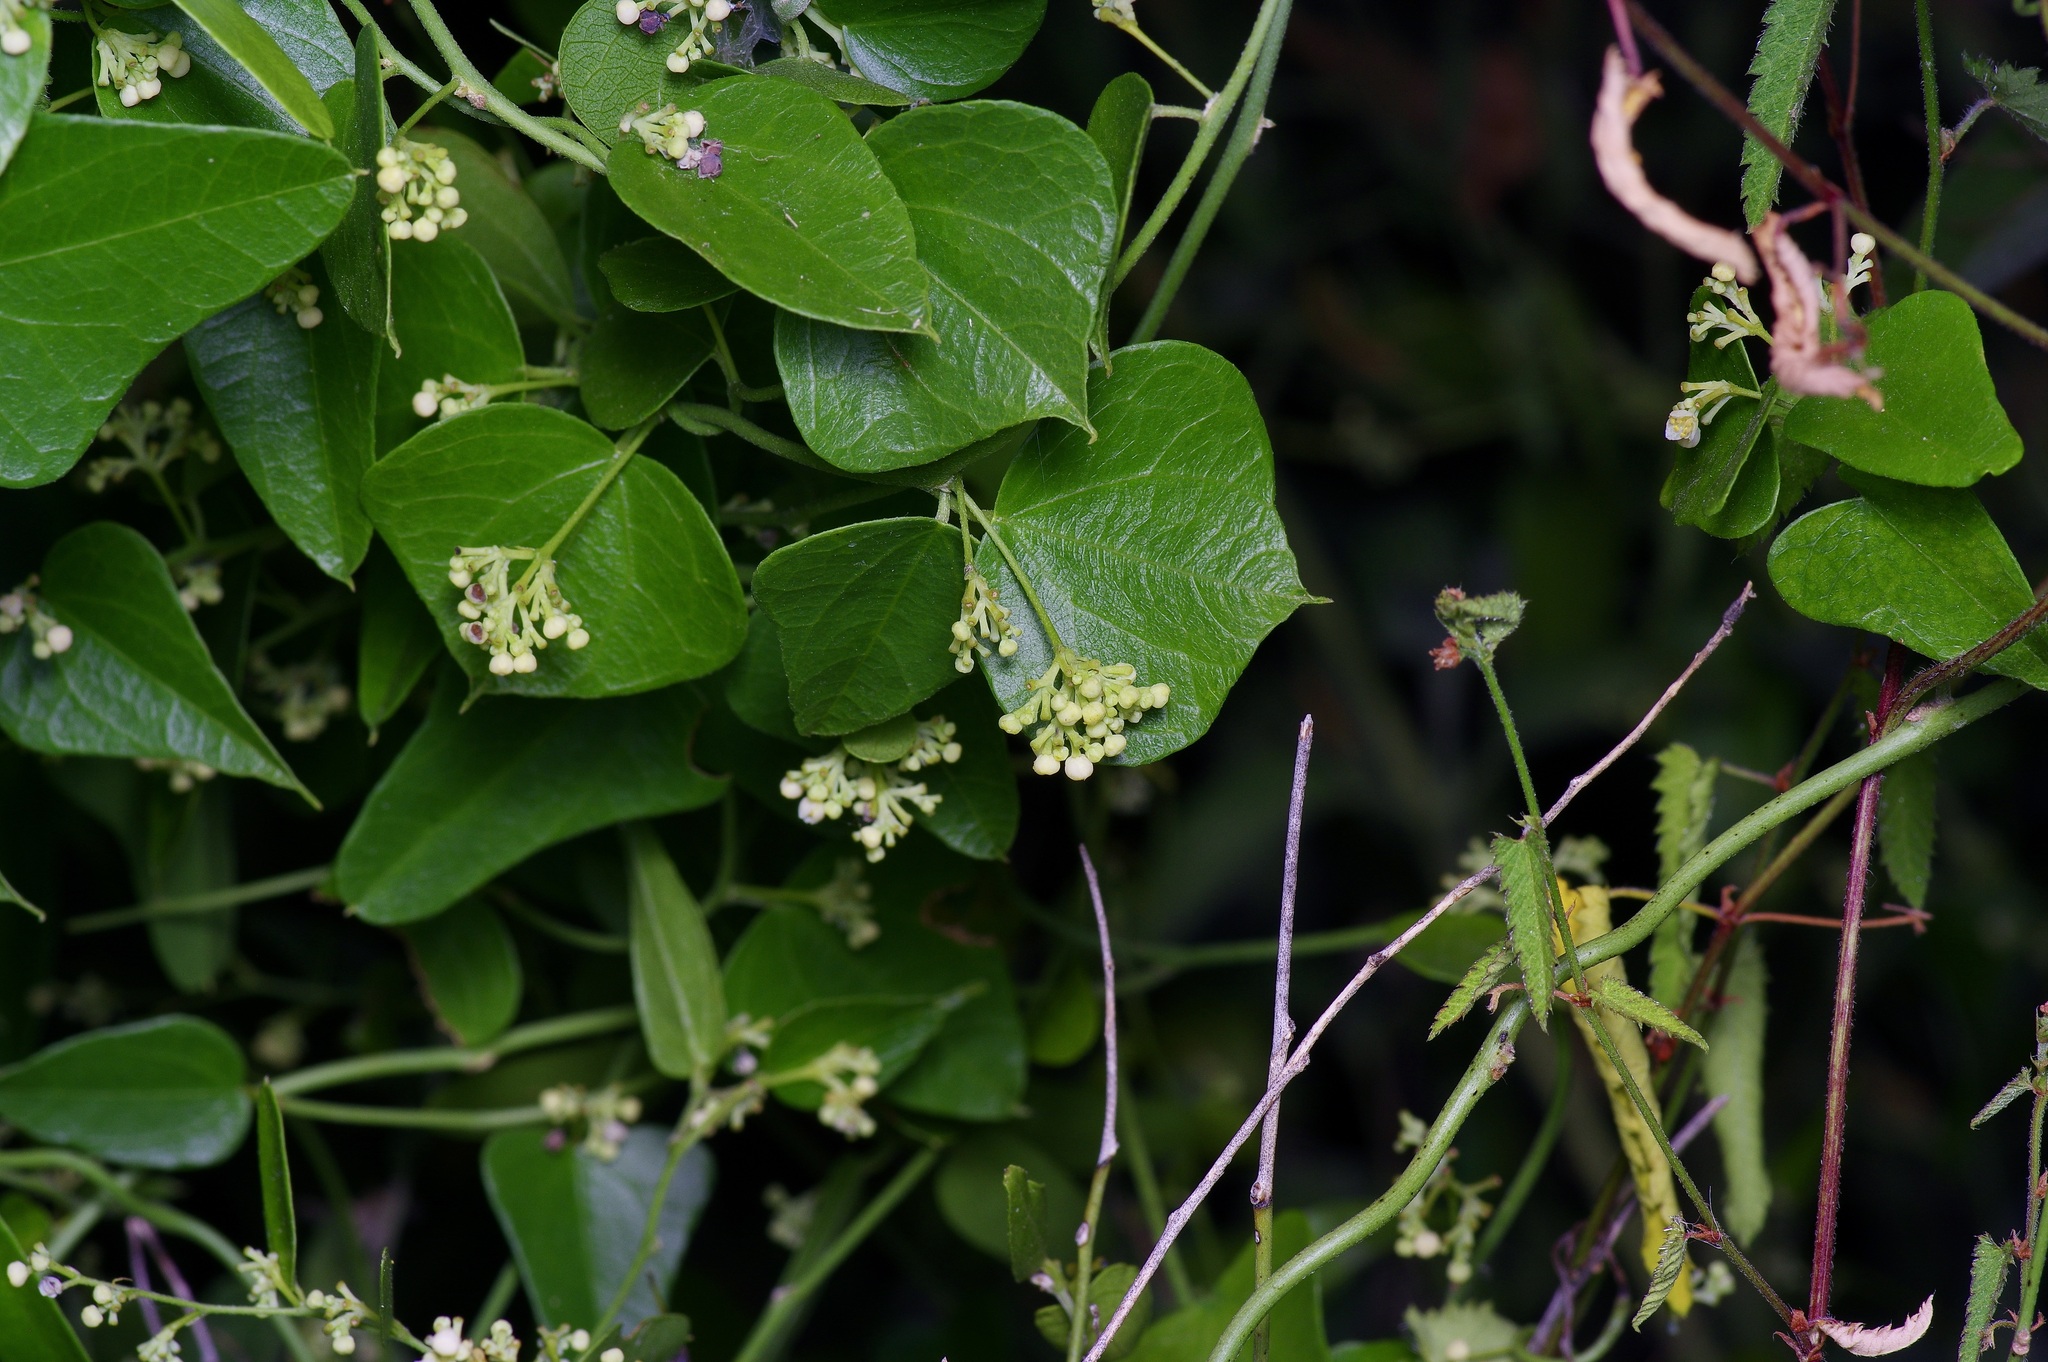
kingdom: Plantae
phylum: Tracheophyta
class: Magnoliopsida
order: Ranunculales
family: Menispermaceae
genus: Cocculus
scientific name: Cocculus carolinus
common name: Carolina moonseed
